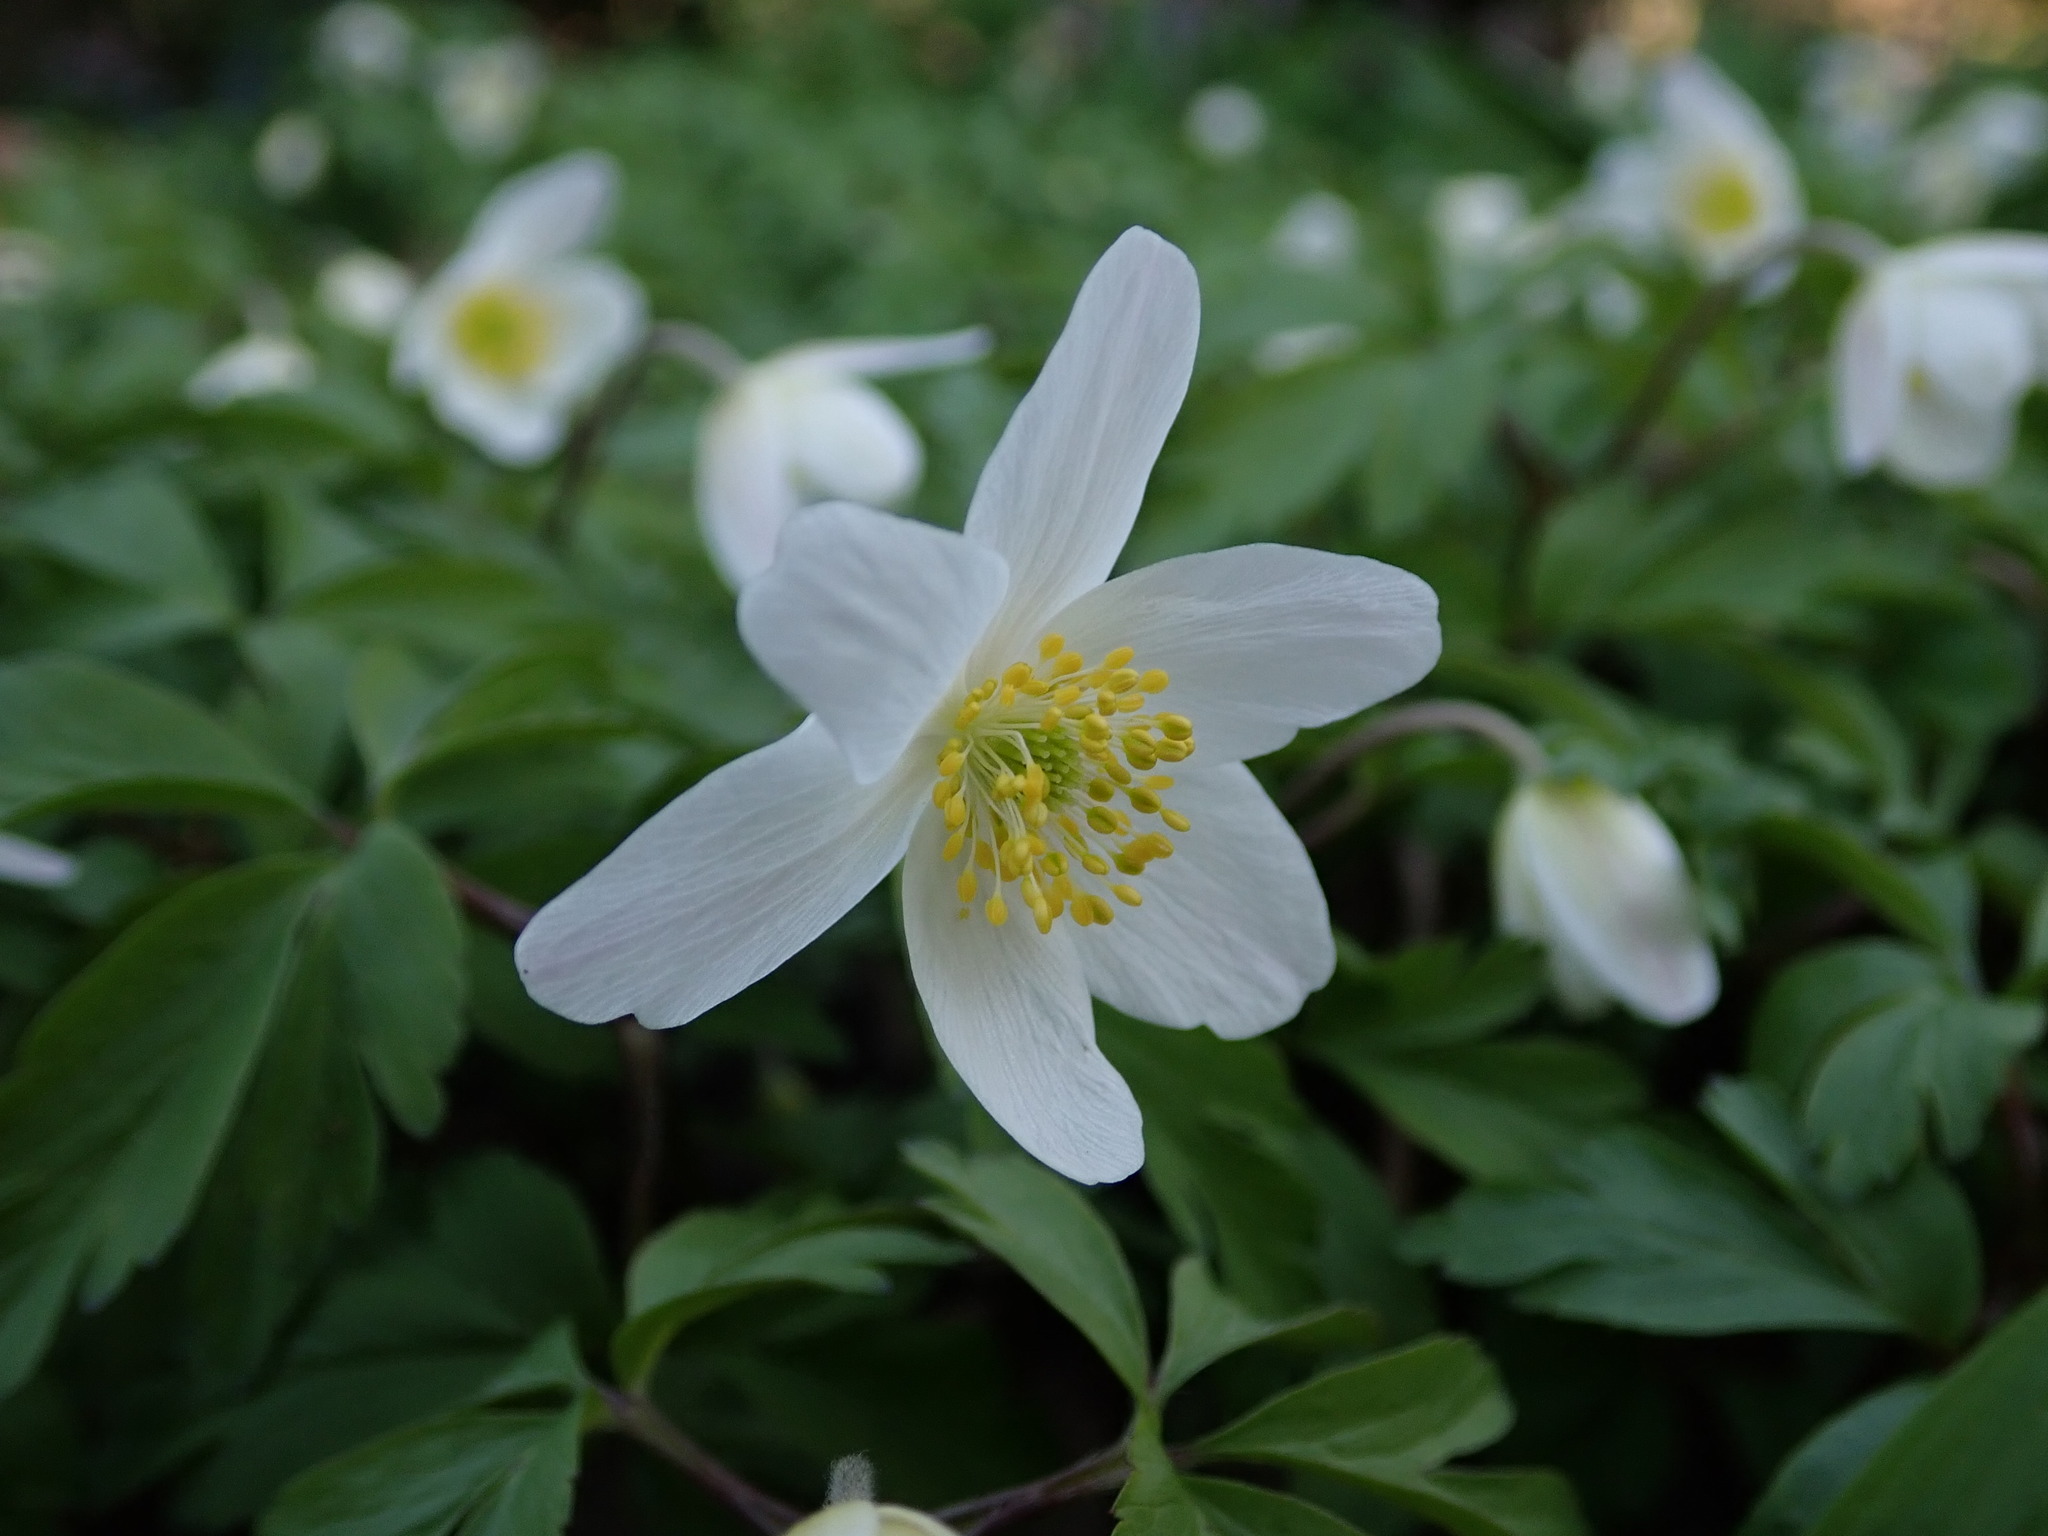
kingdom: Plantae
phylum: Tracheophyta
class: Magnoliopsida
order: Ranunculales
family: Ranunculaceae
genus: Anemone
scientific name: Anemone nemorosa
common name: Wood anemone
